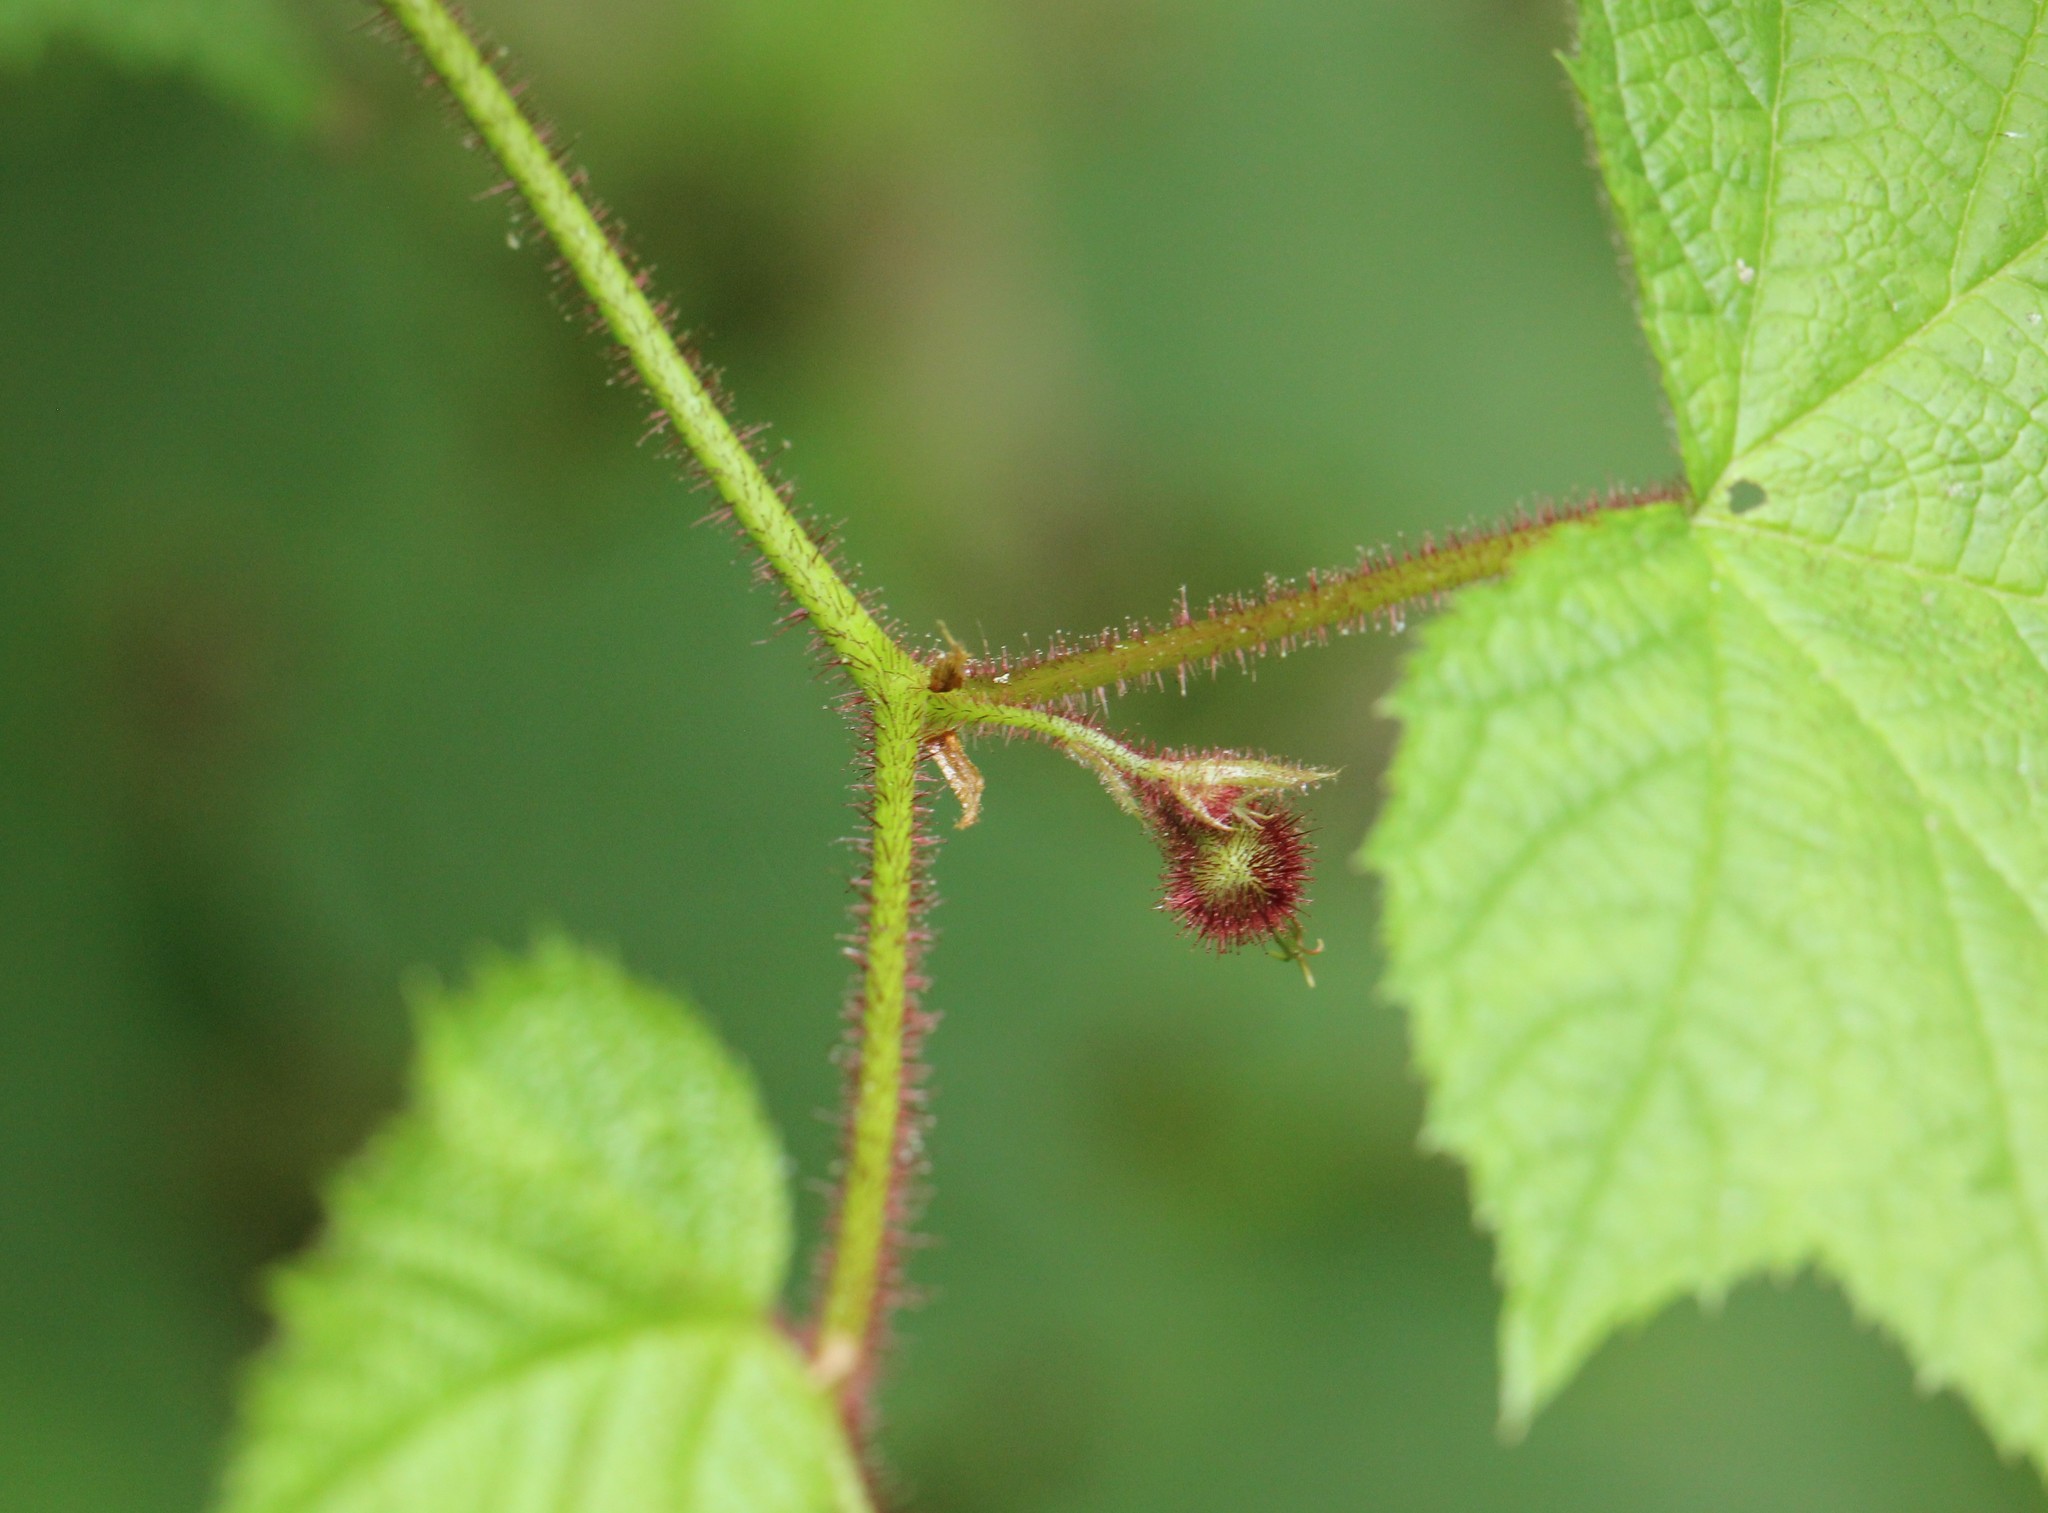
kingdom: Plantae
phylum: Tracheophyta
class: Magnoliopsida
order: Rosales
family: Rosaceae
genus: Rubus
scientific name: Rubus odoratus
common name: Purple-flowered raspberry
